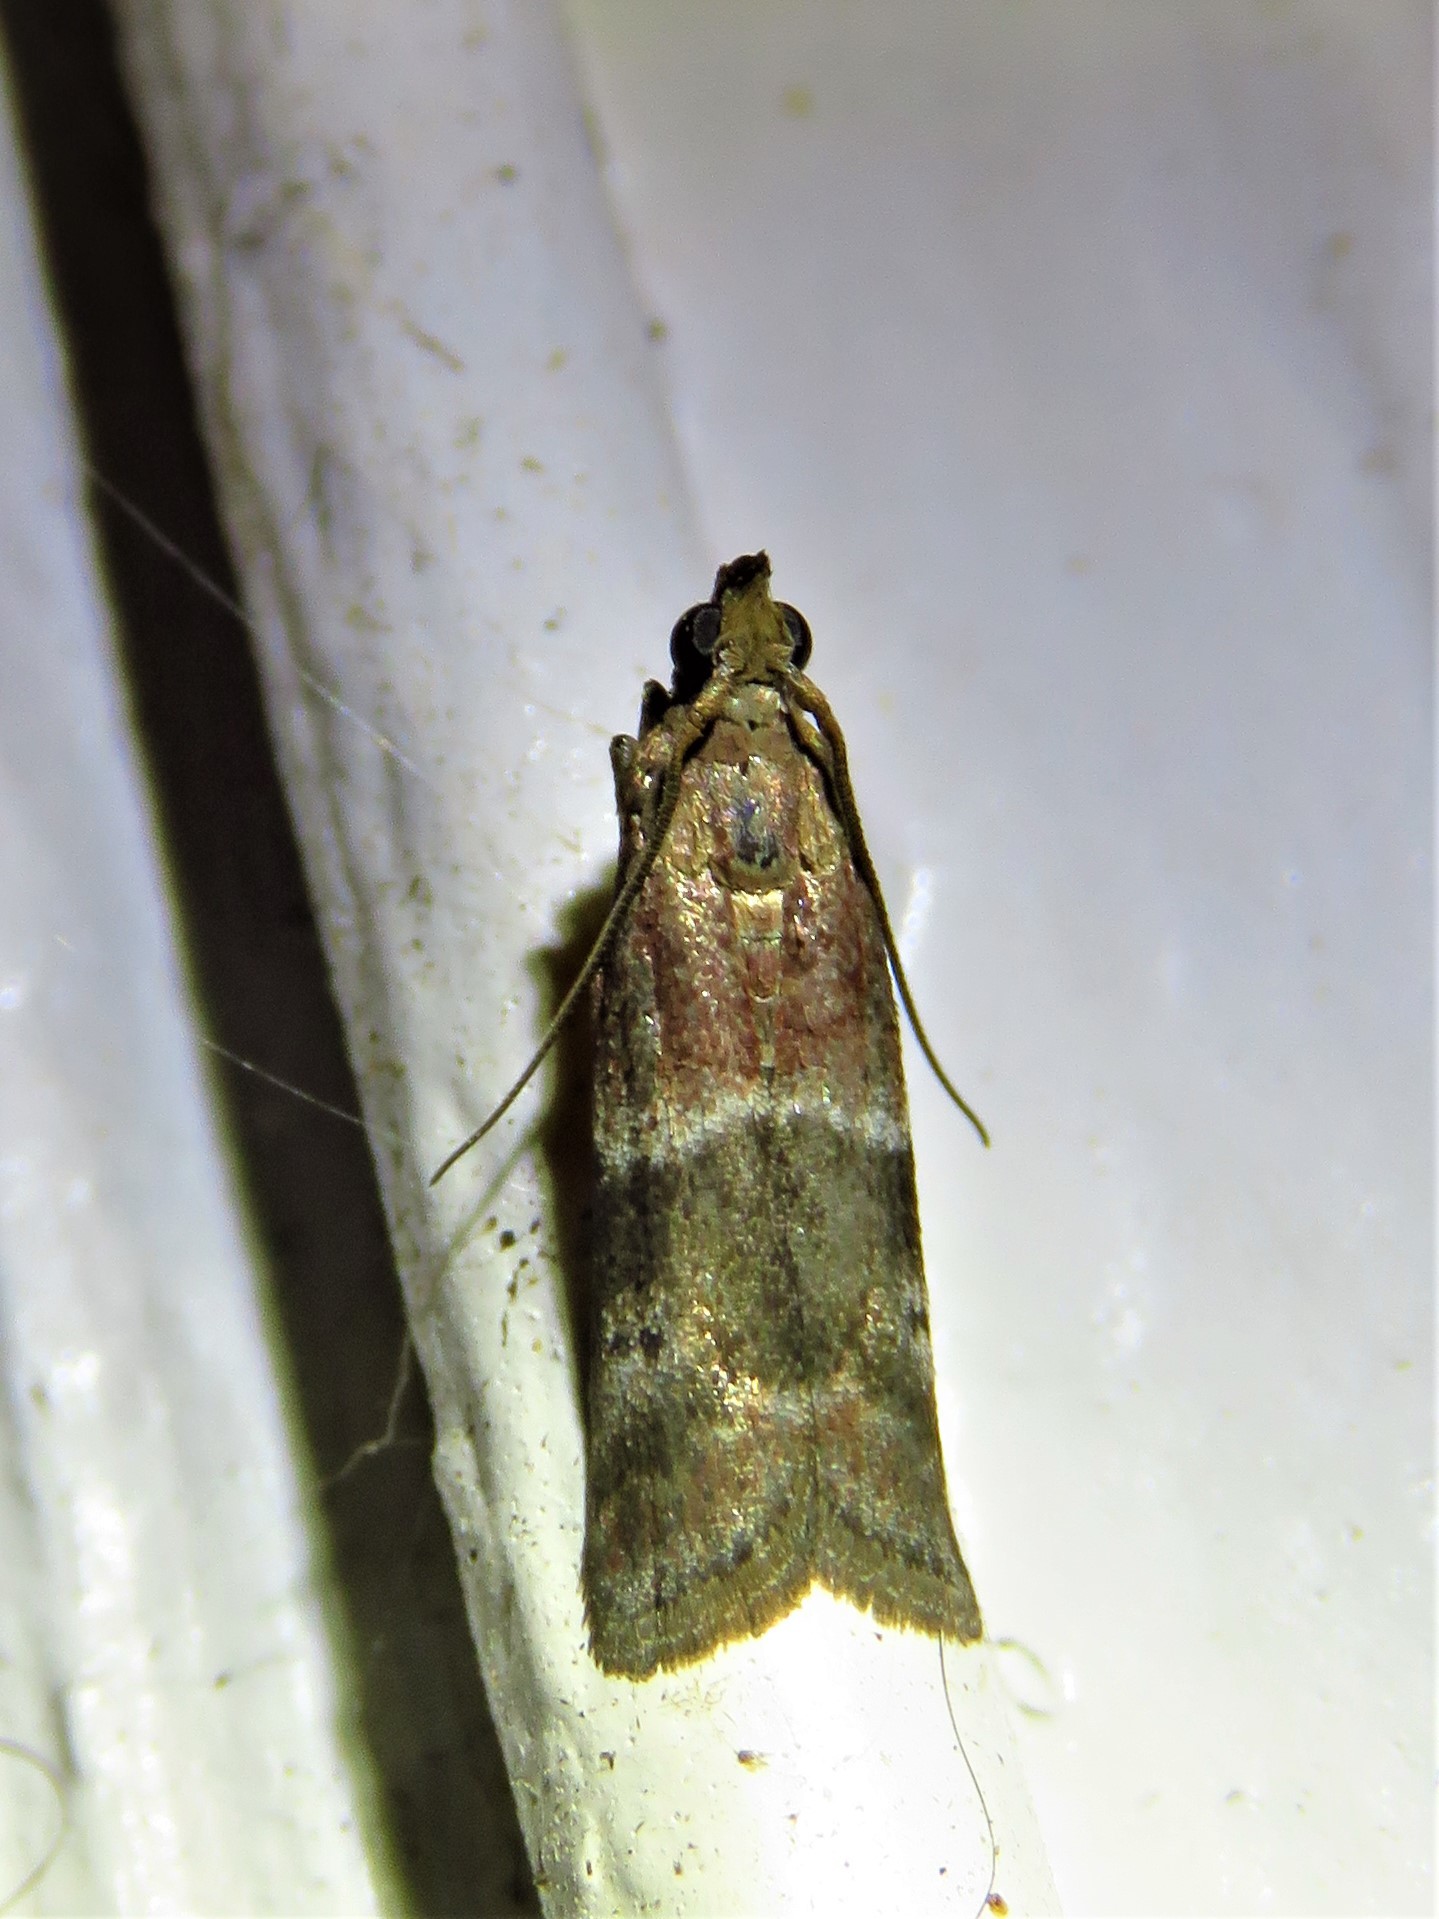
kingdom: Animalia
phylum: Arthropoda
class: Insecta
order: Lepidoptera
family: Pyralidae
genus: Moodna
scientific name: Moodna ostrinella
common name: Darker moodna moth
